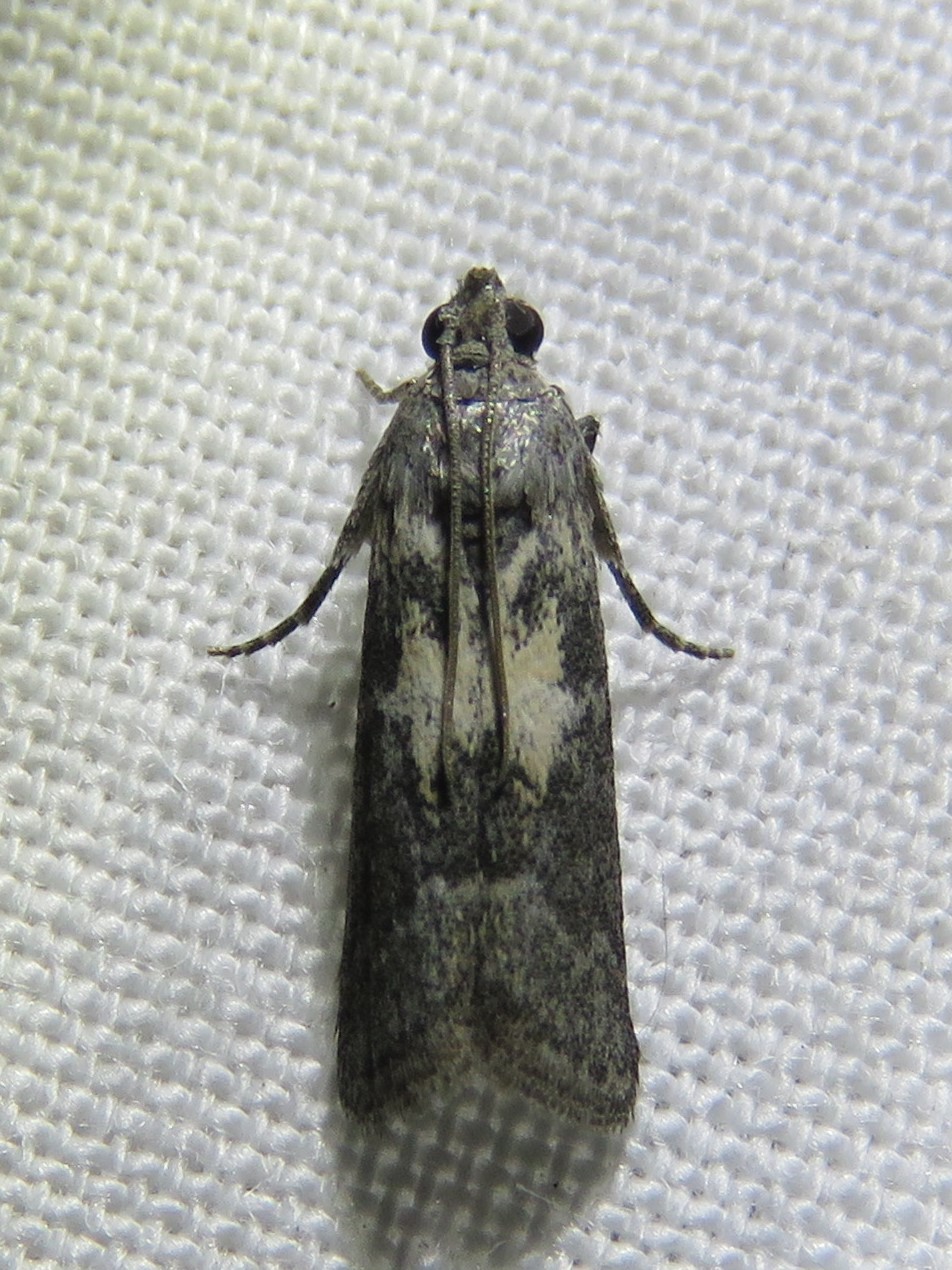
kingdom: Animalia
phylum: Arthropoda
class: Insecta
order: Lepidoptera
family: Pyralidae
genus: Tacoma
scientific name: Tacoma feriella
